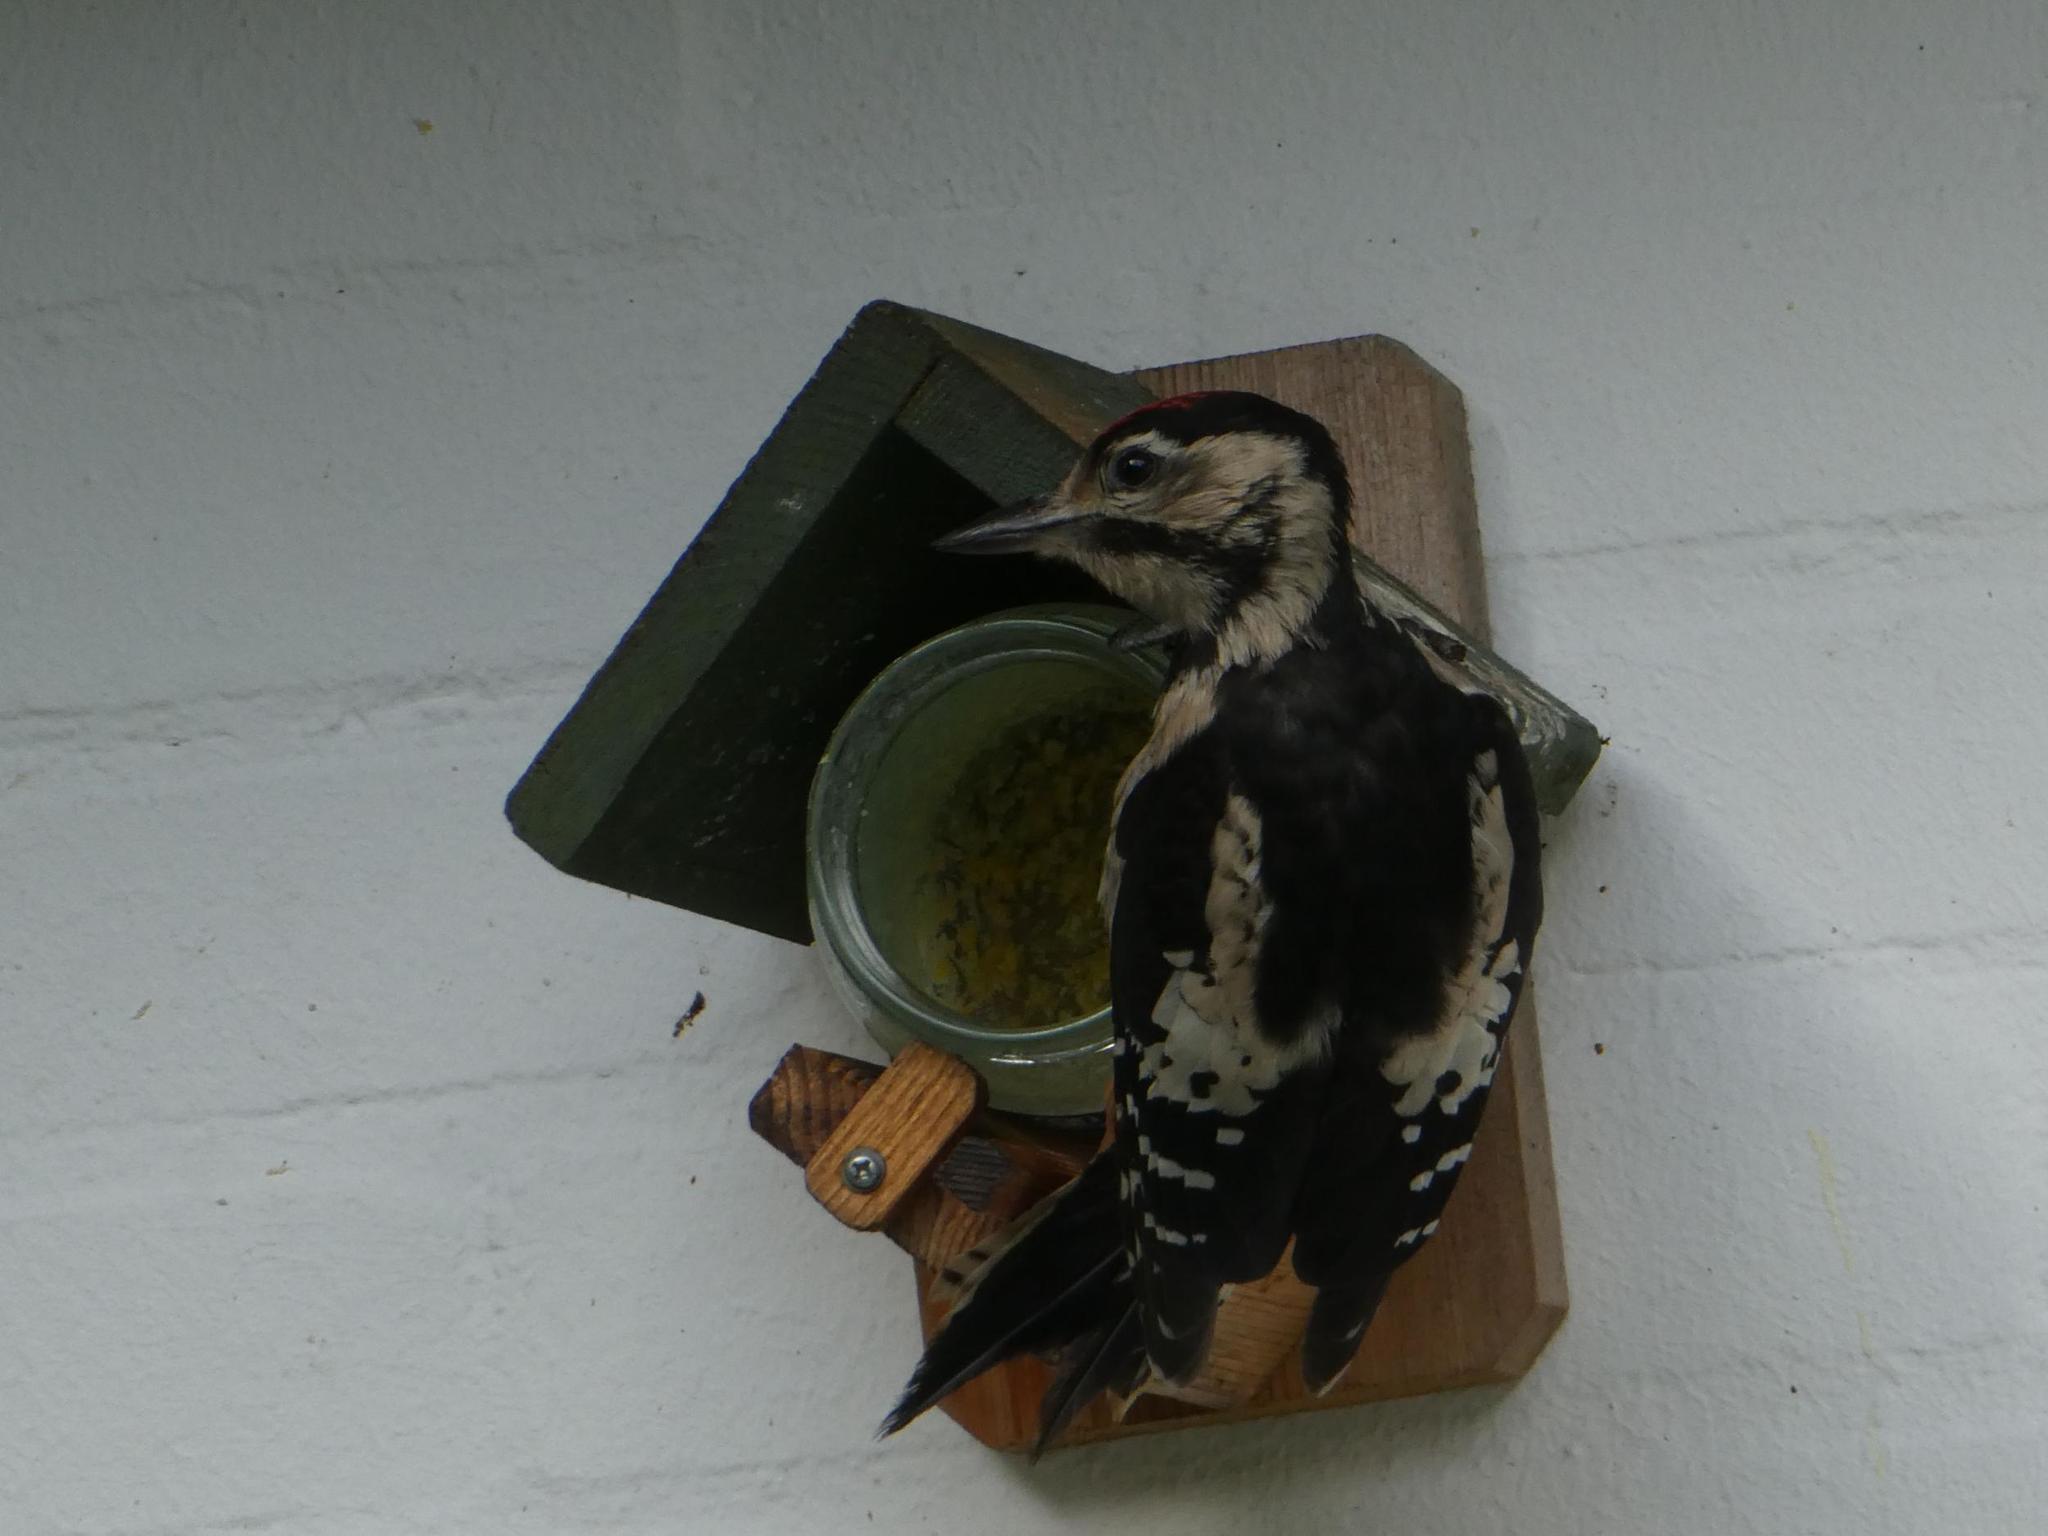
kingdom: Animalia
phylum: Chordata
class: Aves
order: Piciformes
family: Picidae
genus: Dendrocopos
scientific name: Dendrocopos major
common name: Great spotted woodpecker
